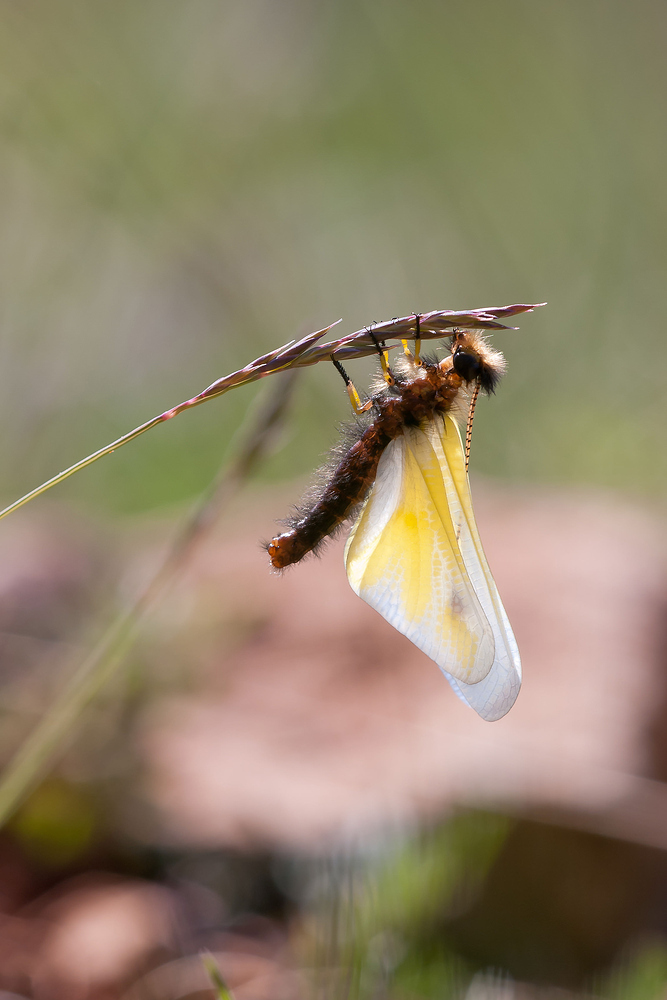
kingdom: Animalia
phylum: Arthropoda
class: Insecta
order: Neuroptera
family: Ascalaphidae
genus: Libelloides
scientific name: Libelloides coccajus
